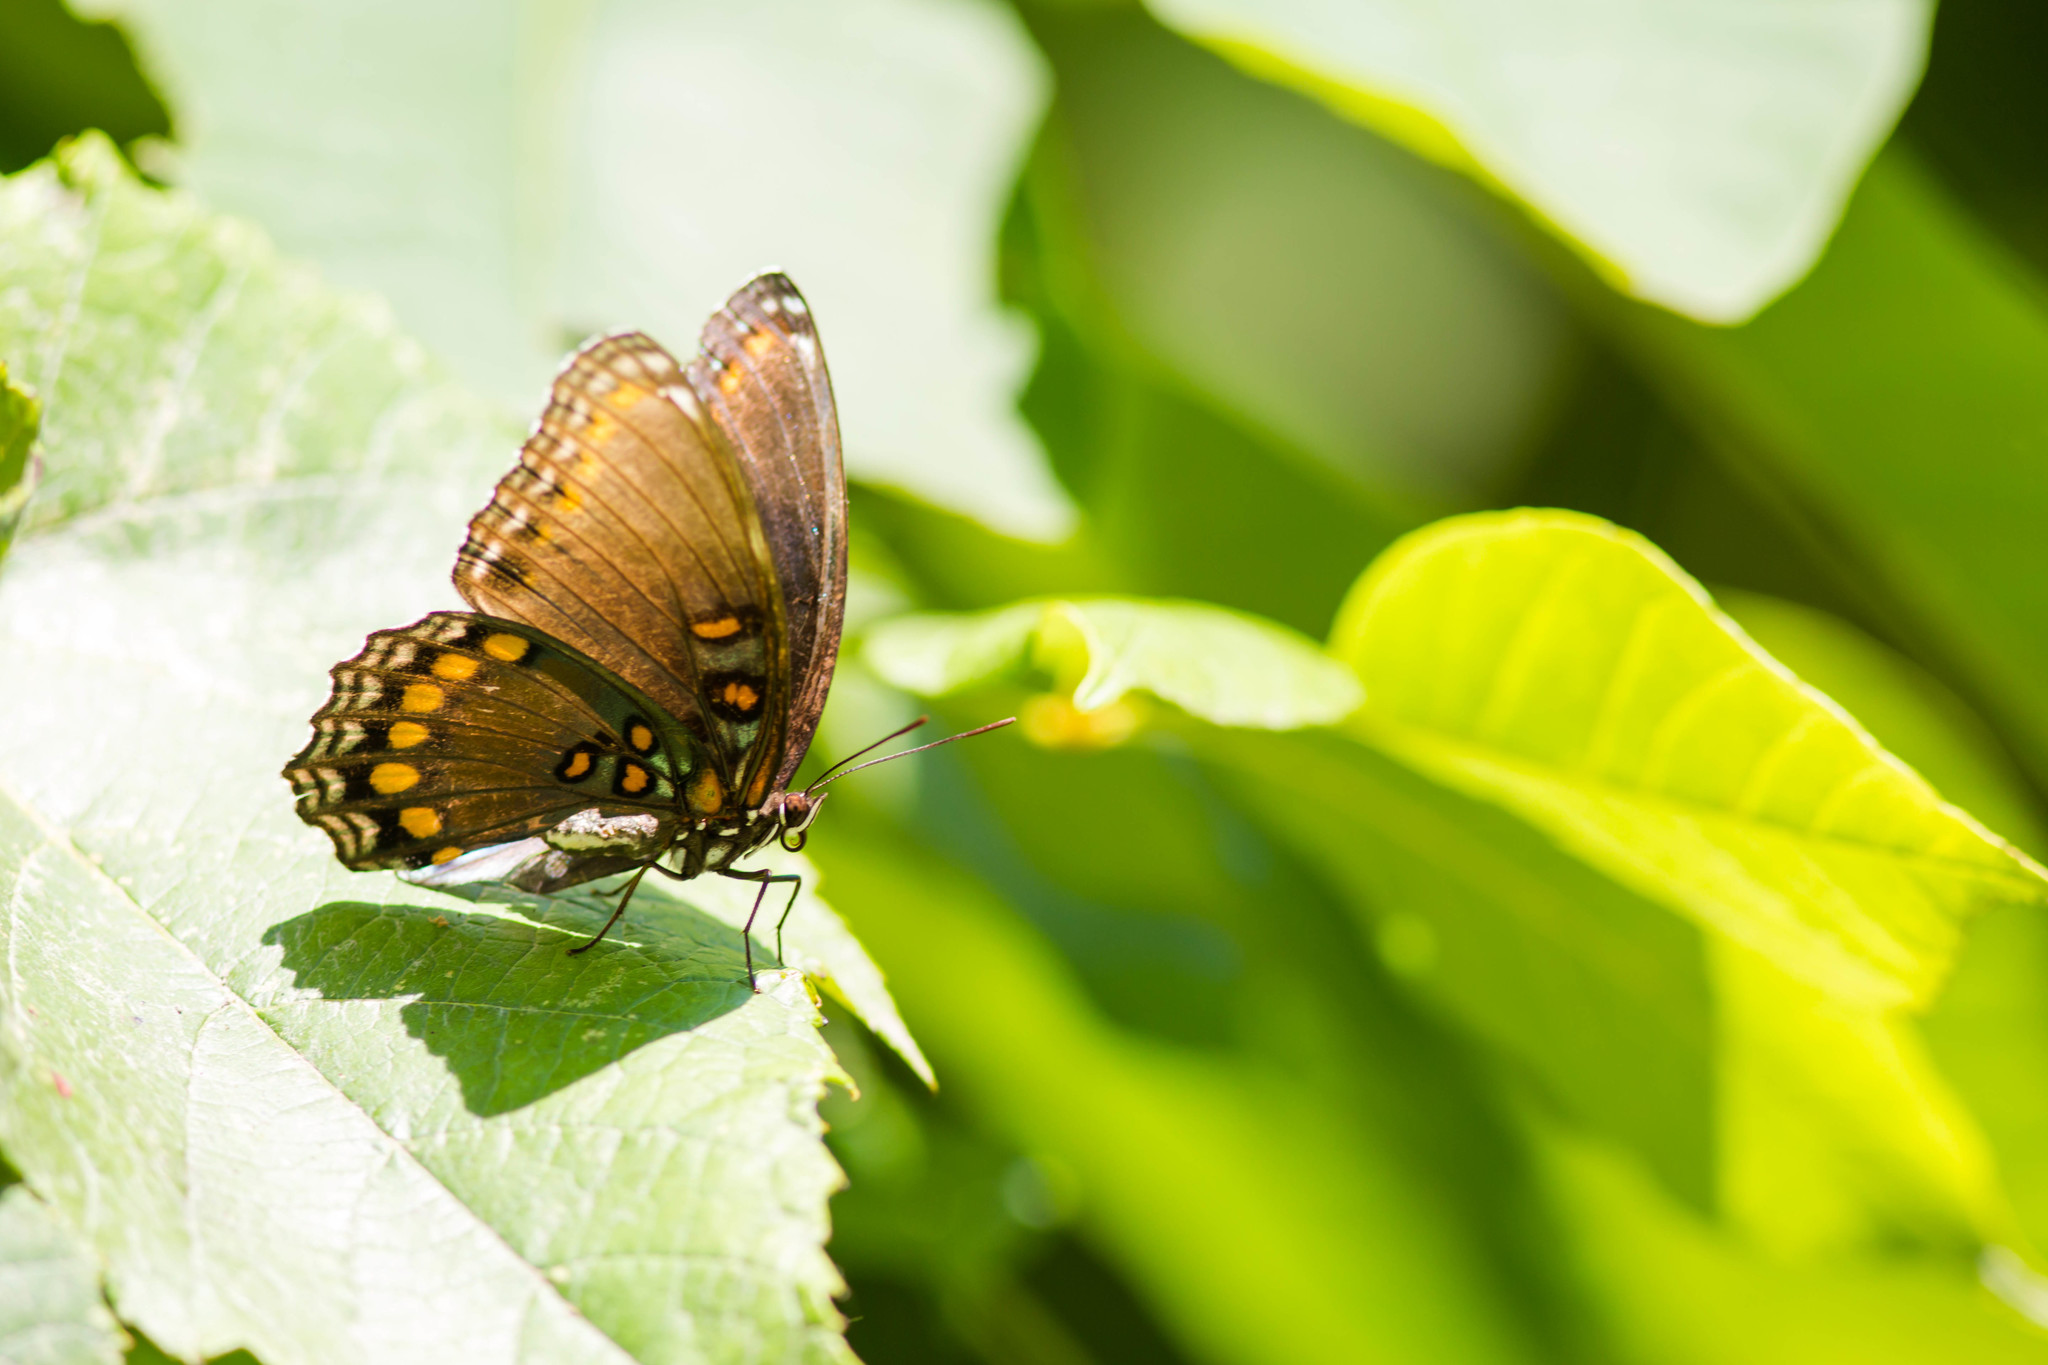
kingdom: Animalia
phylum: Arthropoda
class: Insecta
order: Lepidoptera
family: Nymphalidae
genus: Limenitis
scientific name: Limenitis astyanax
